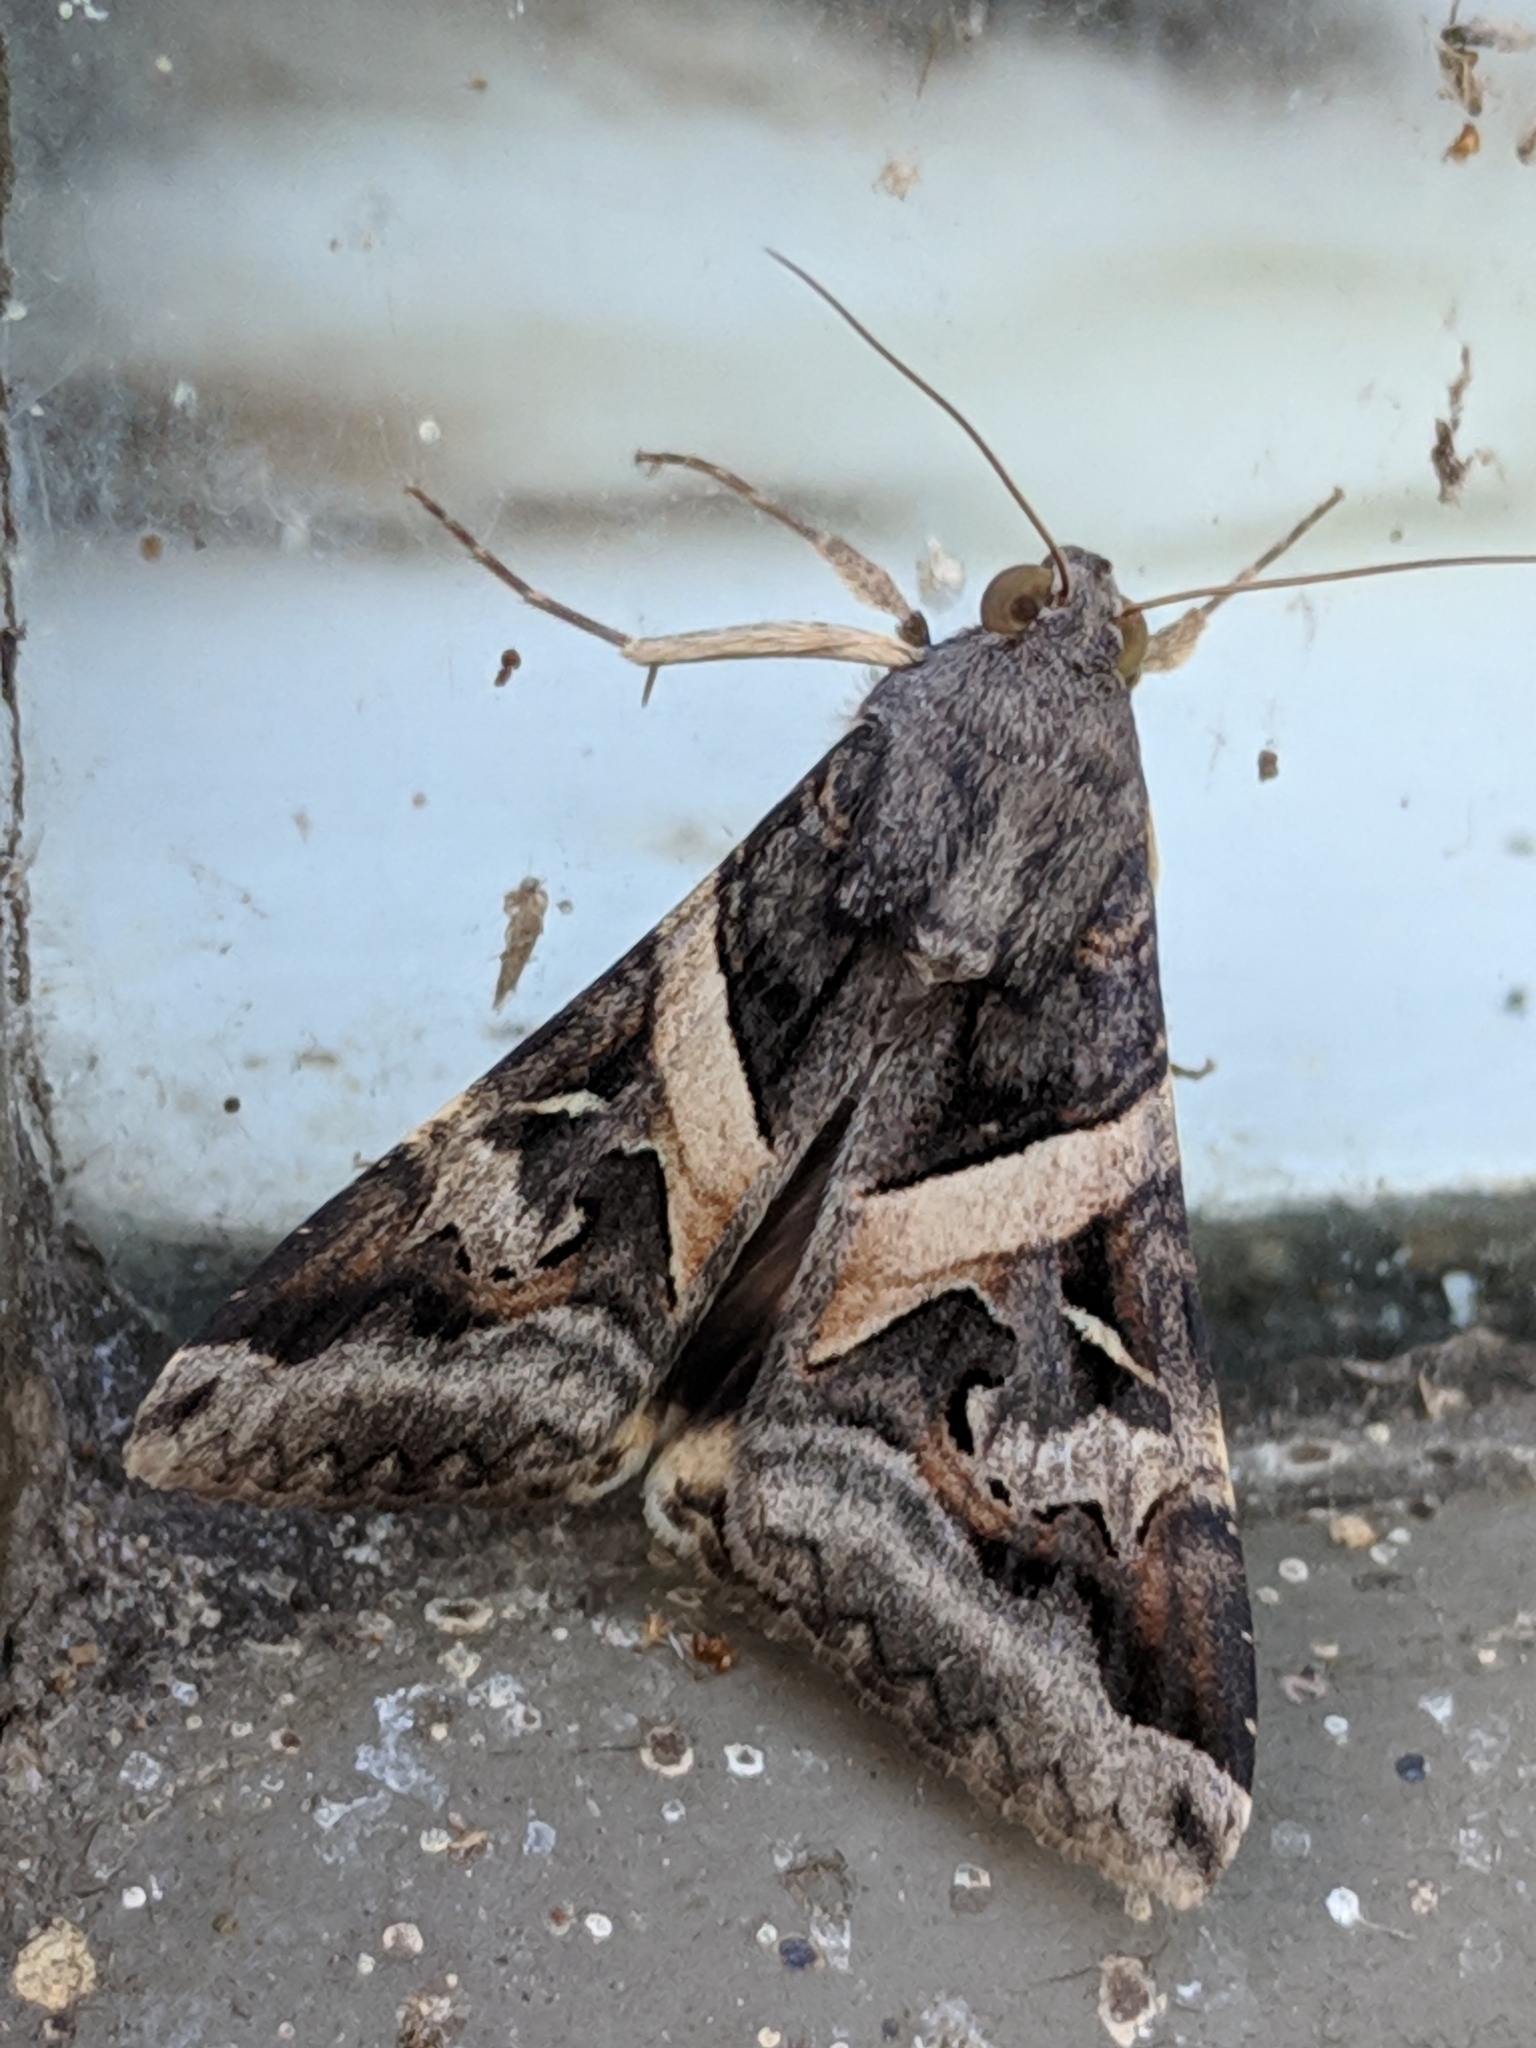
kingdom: Animalia
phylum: Arthropoda
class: Insecta
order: Lepidoptera
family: Erebidae
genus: Melipotis
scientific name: Melipotis indomita
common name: Moth
